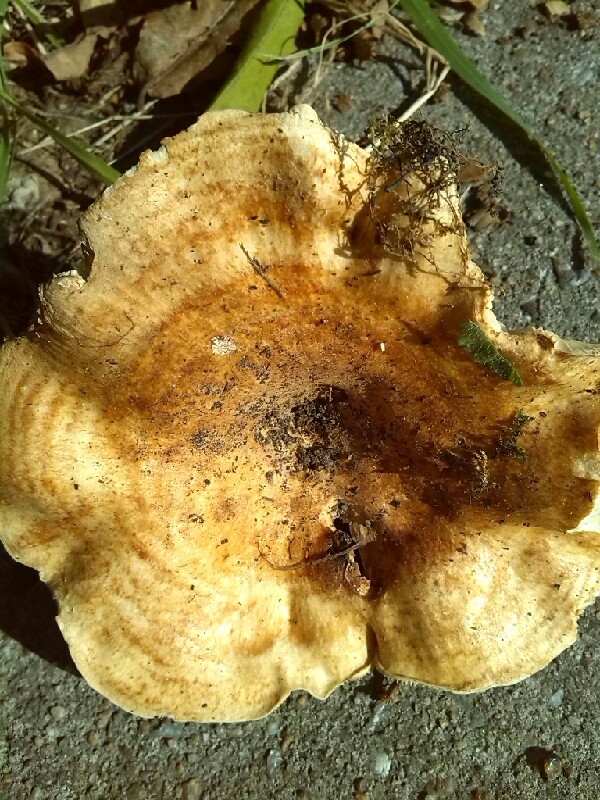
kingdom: Fungi
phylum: Basidiomycota
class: Agaricomycetes
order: Russulales
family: Russulaceae
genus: Lactarius
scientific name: Lactarius zonarius
